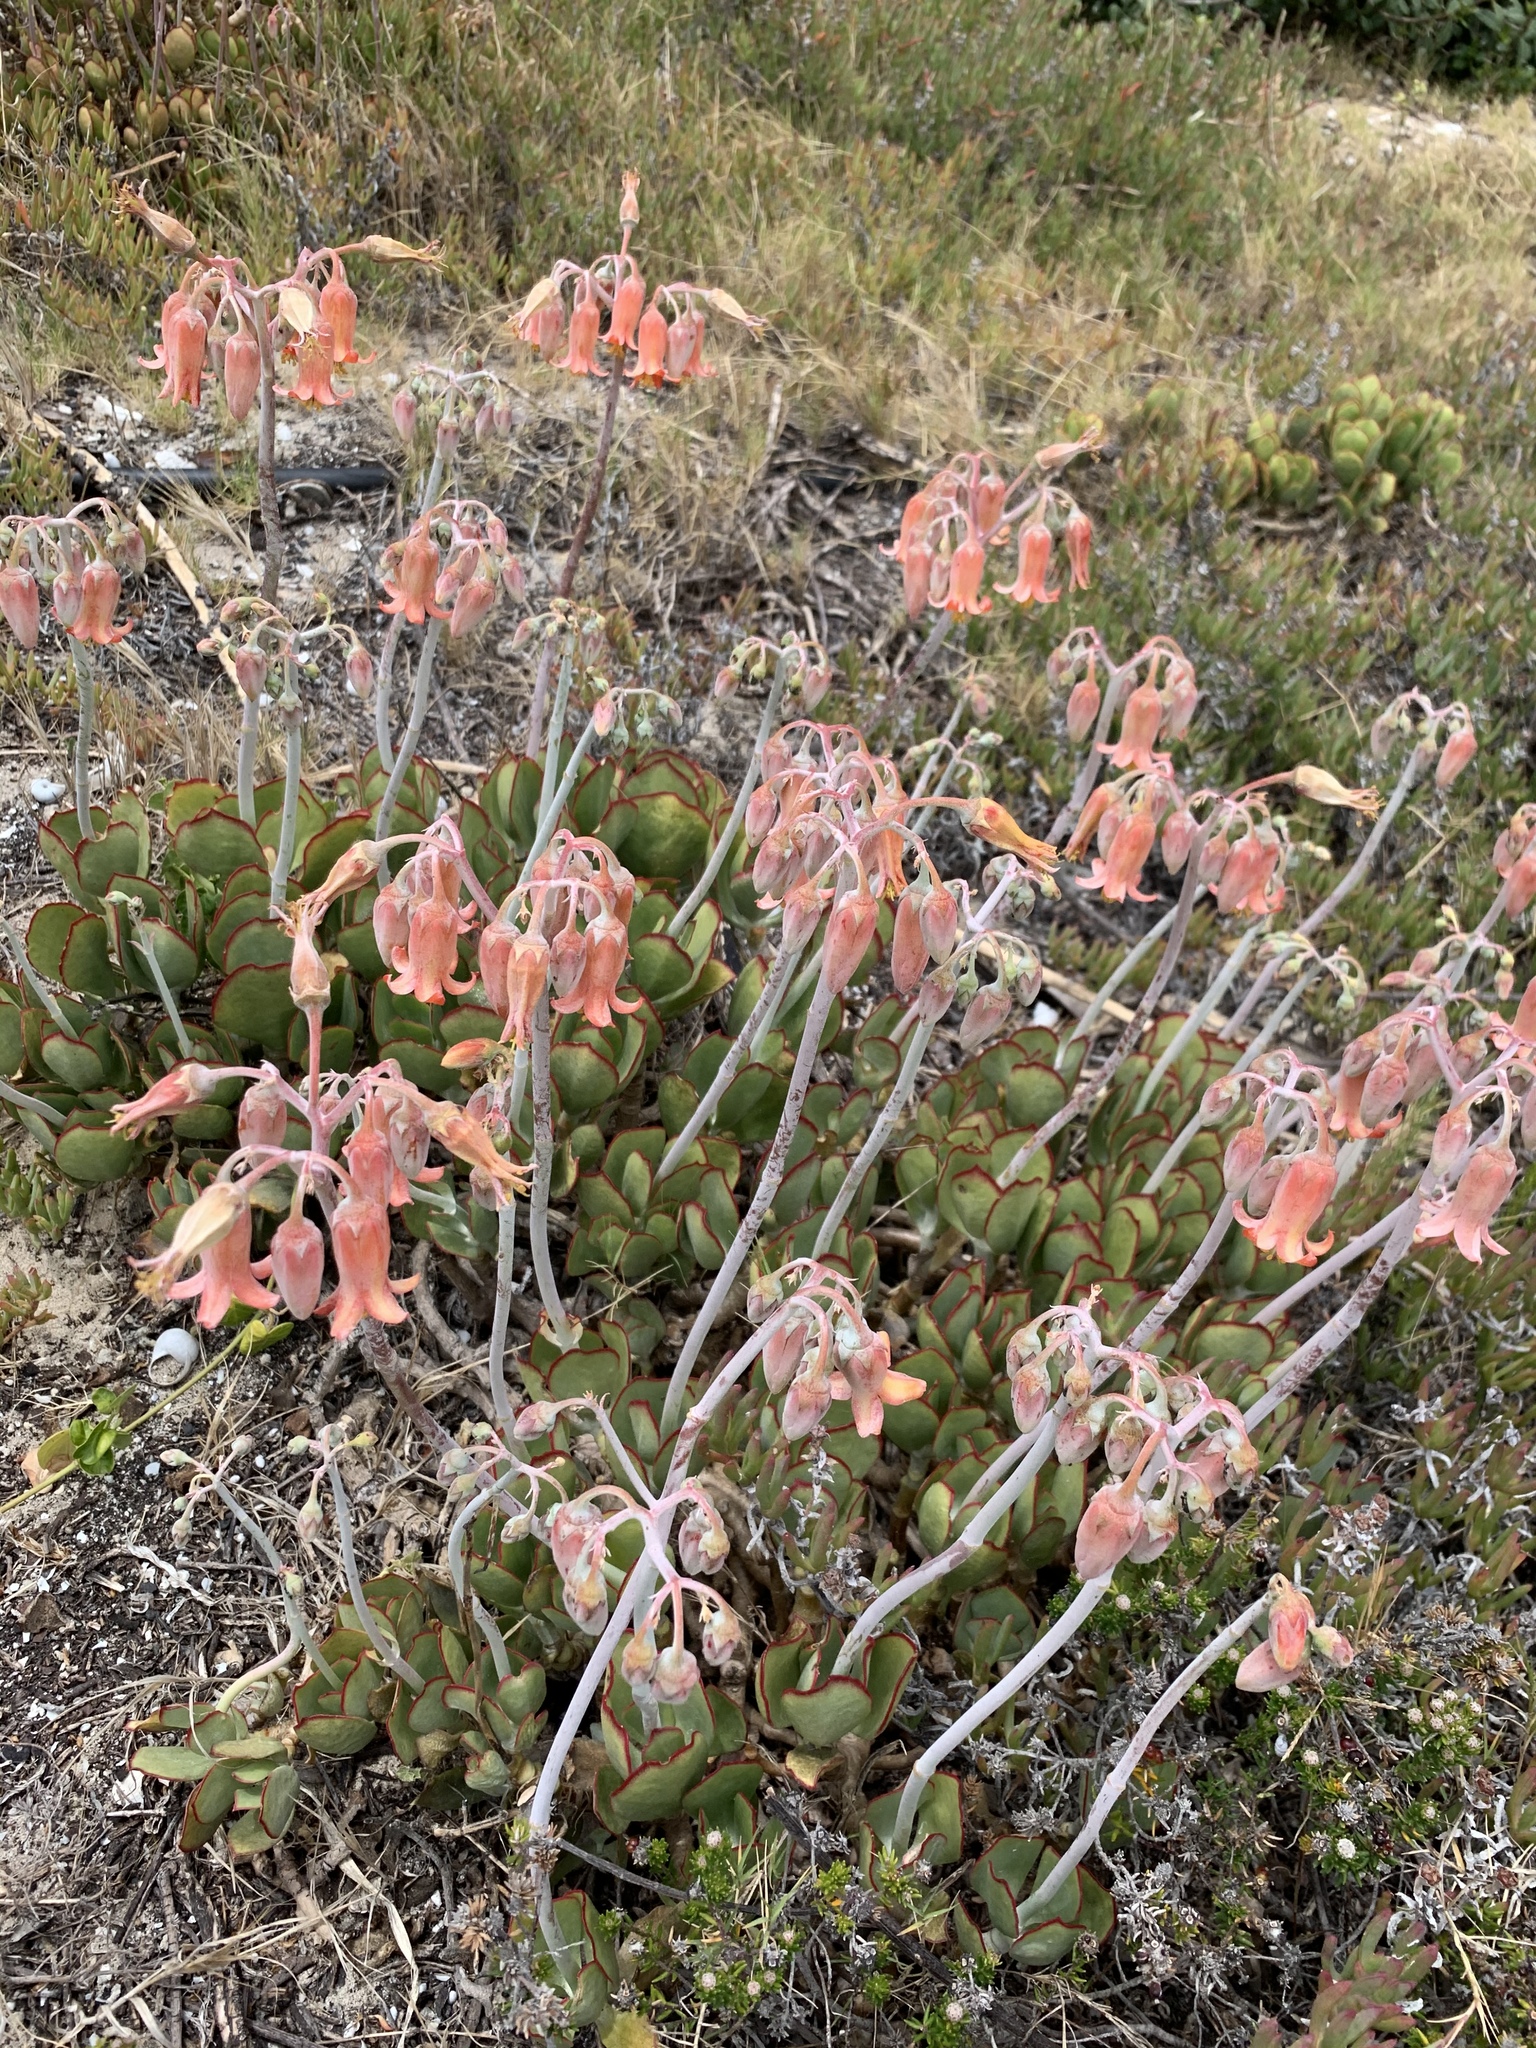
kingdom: Plantae
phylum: Tracheophyta
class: Magnoliopsida
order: Saxifragales
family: Crassulaceae
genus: Cotyledon
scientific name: Cotyledon orbiculata
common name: Pig's ear
